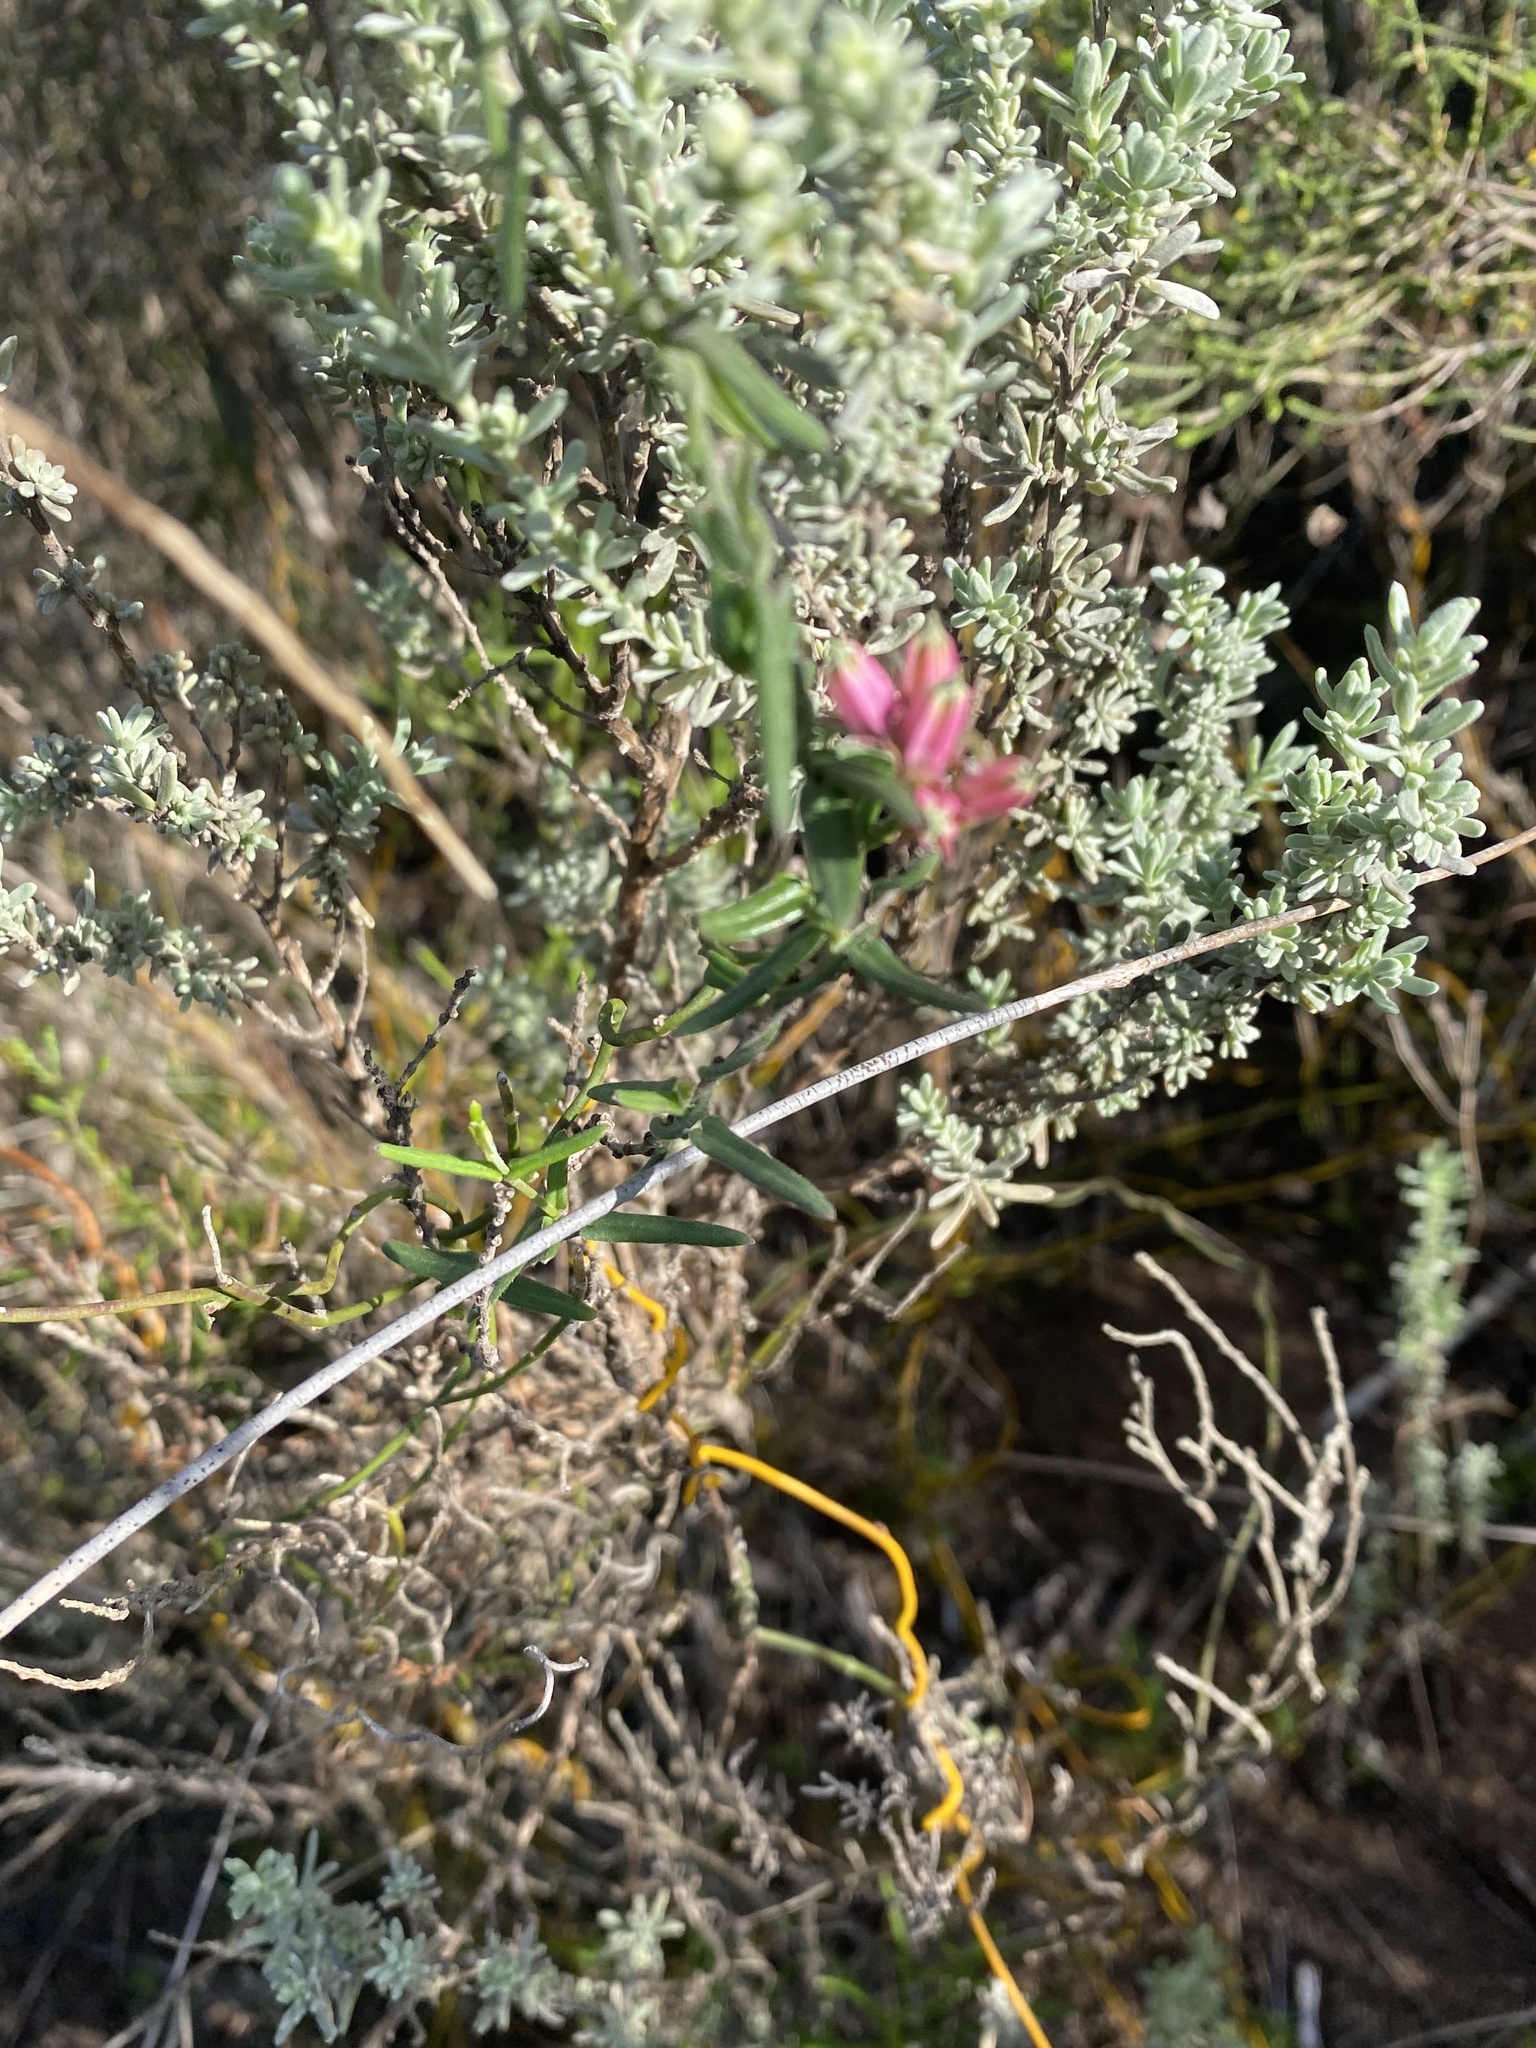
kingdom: Plantae
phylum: Tracheophyta
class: Magnoliopsida
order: Gentianales
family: Apocynaceae
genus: Microloma
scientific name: Microloma sagittatum
